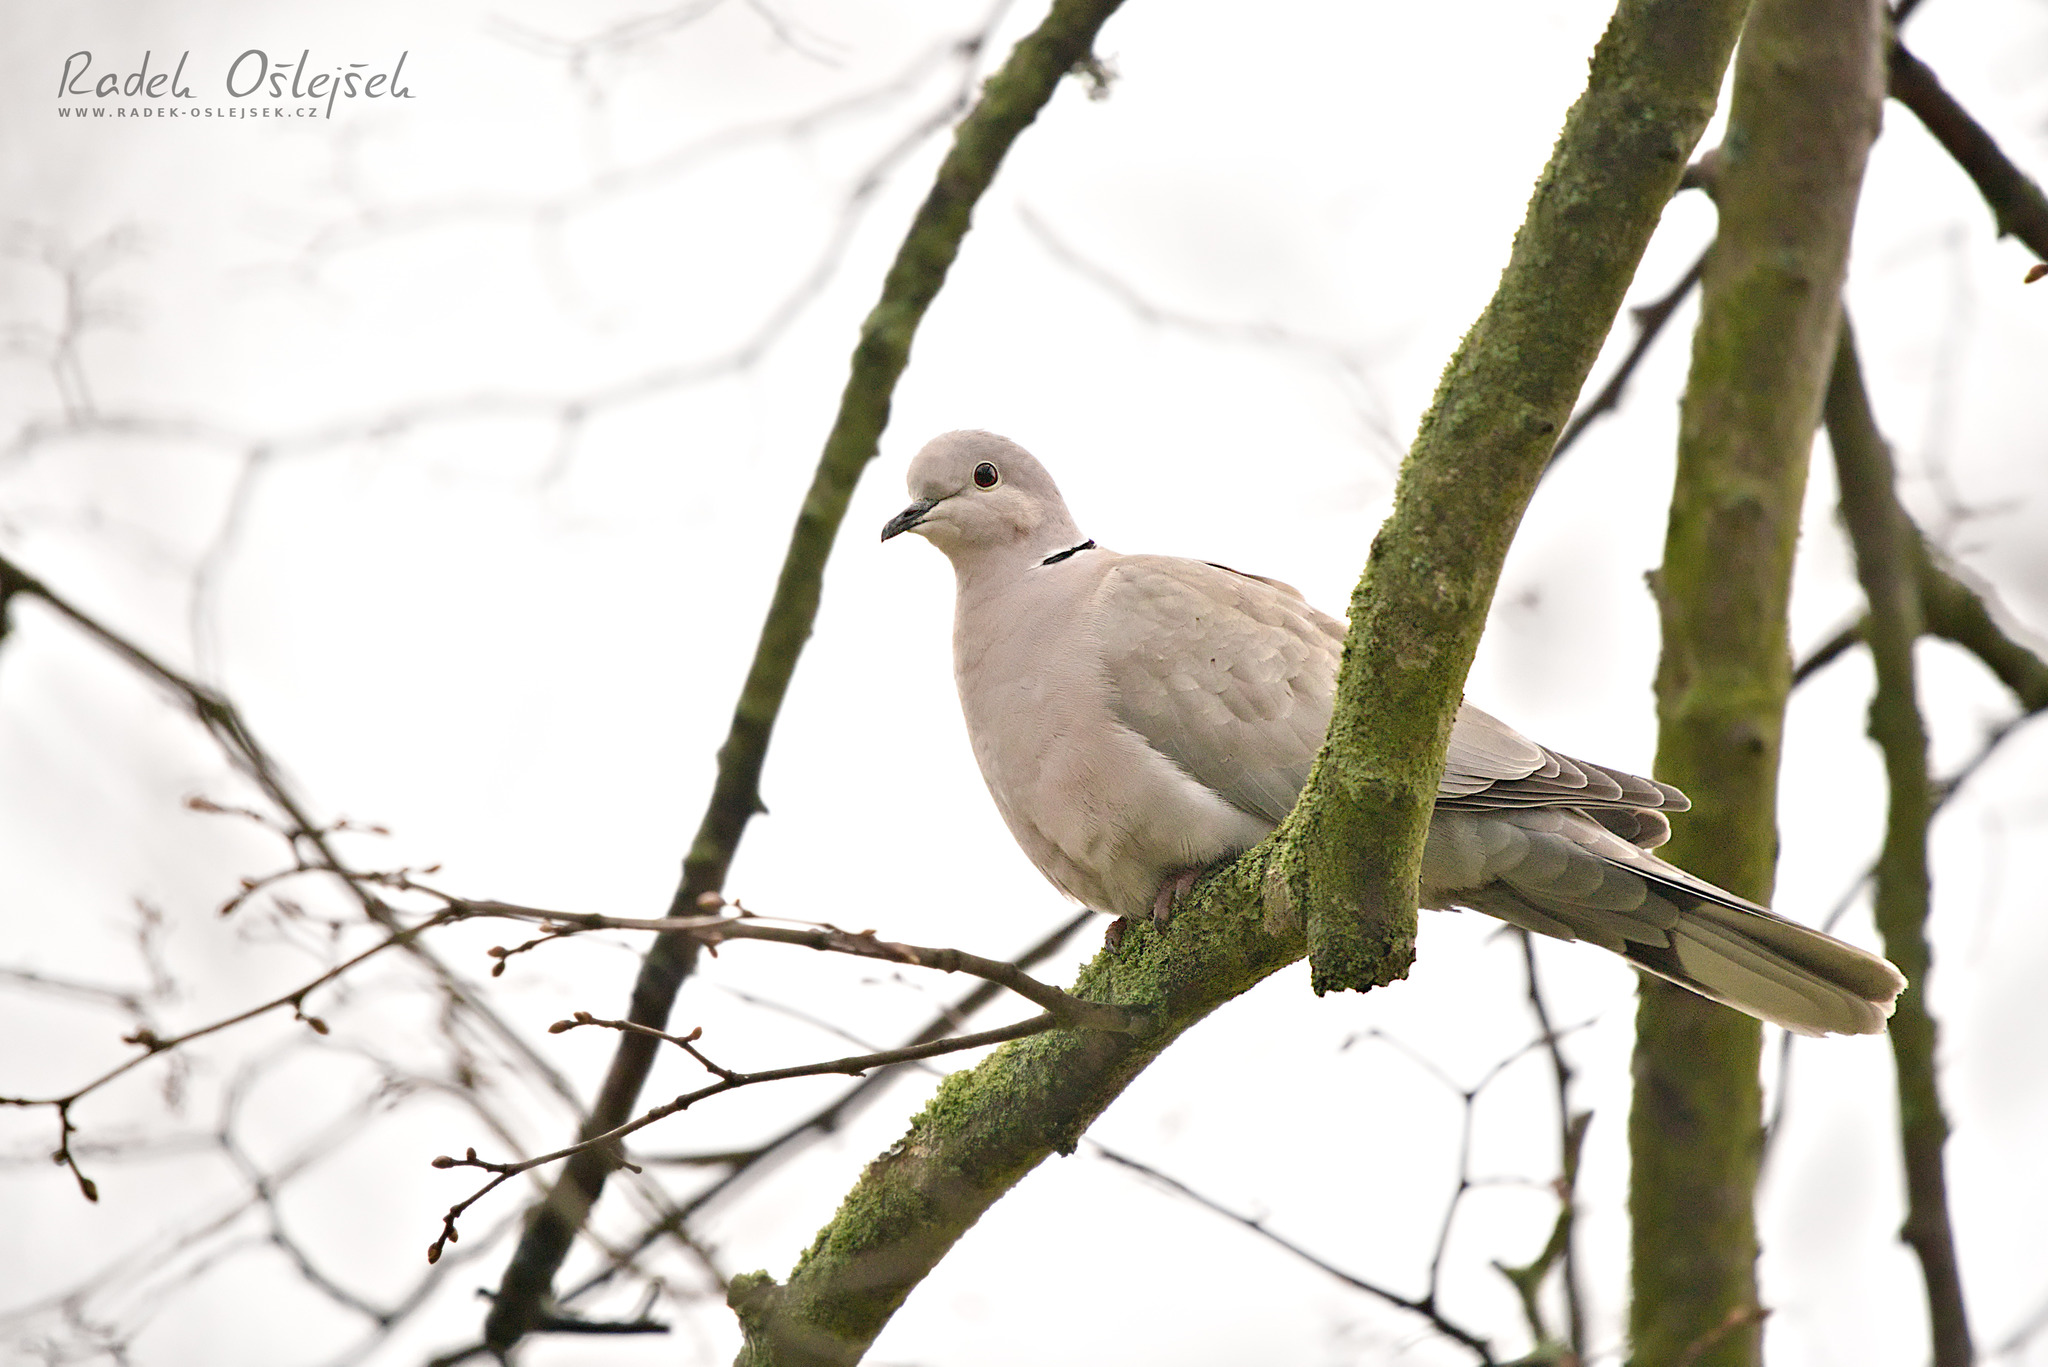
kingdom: Animalia
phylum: Chordata
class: Aves
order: Columbiformes
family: Columbidae
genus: Streptopelia
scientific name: Streptopelia decaocto
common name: Eurasian collared dove
